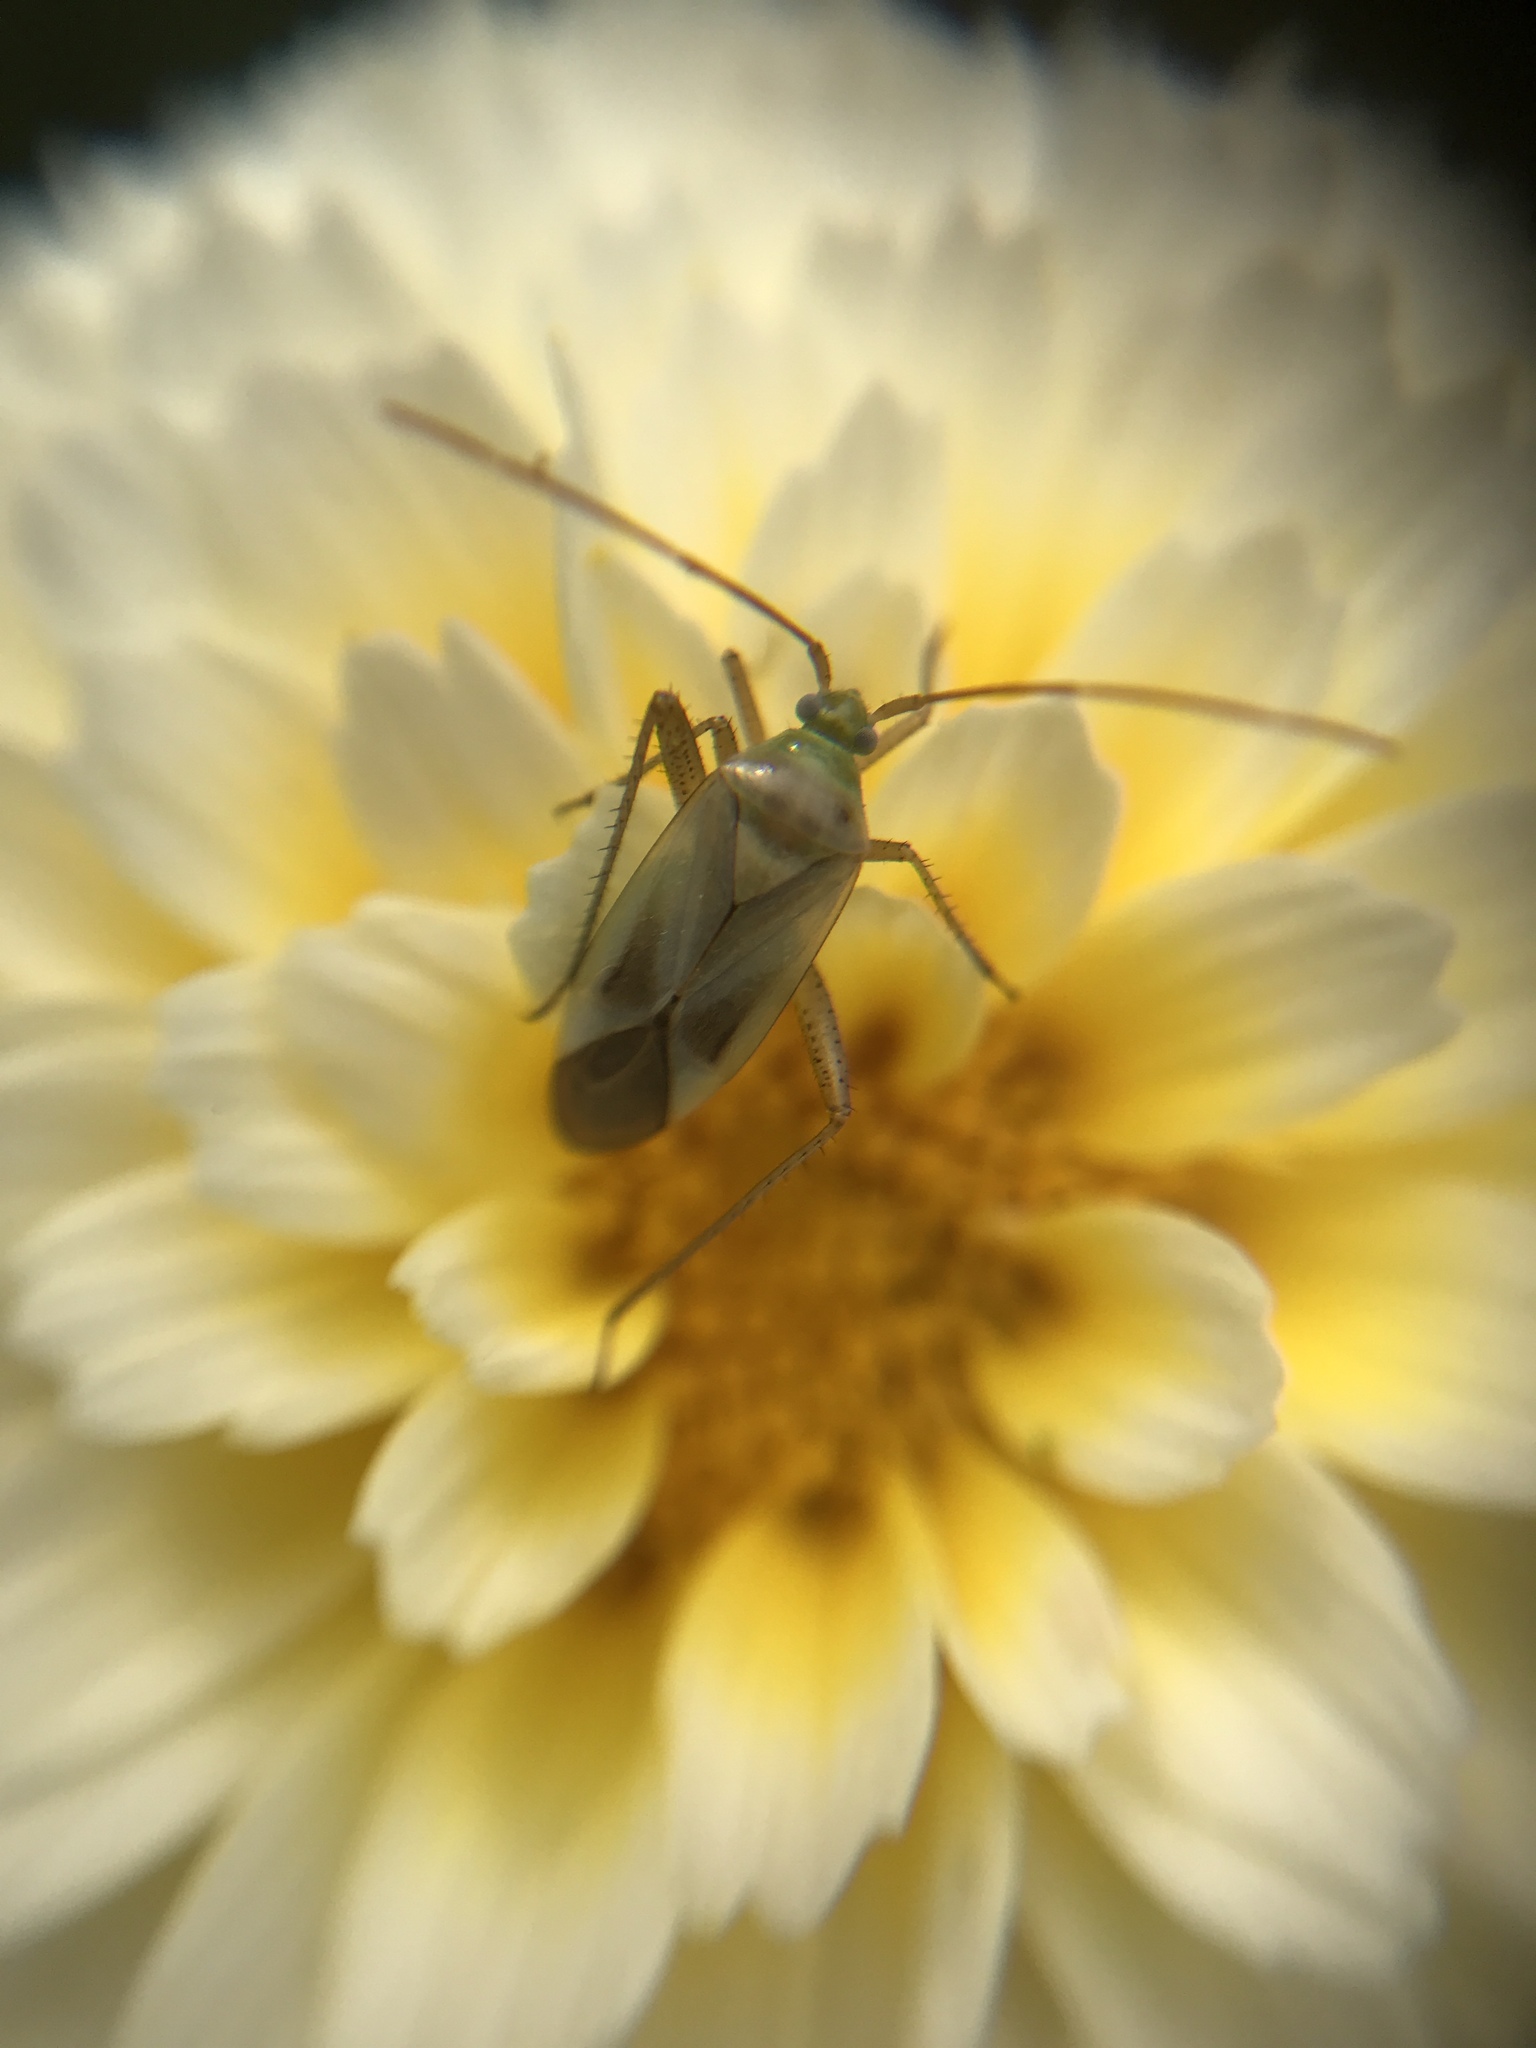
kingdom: Animalia
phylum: Arthropoda
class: Insecta
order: Hemiptera
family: Miridae
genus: Adelphocoris
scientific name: Adelphocoris lineolatus
